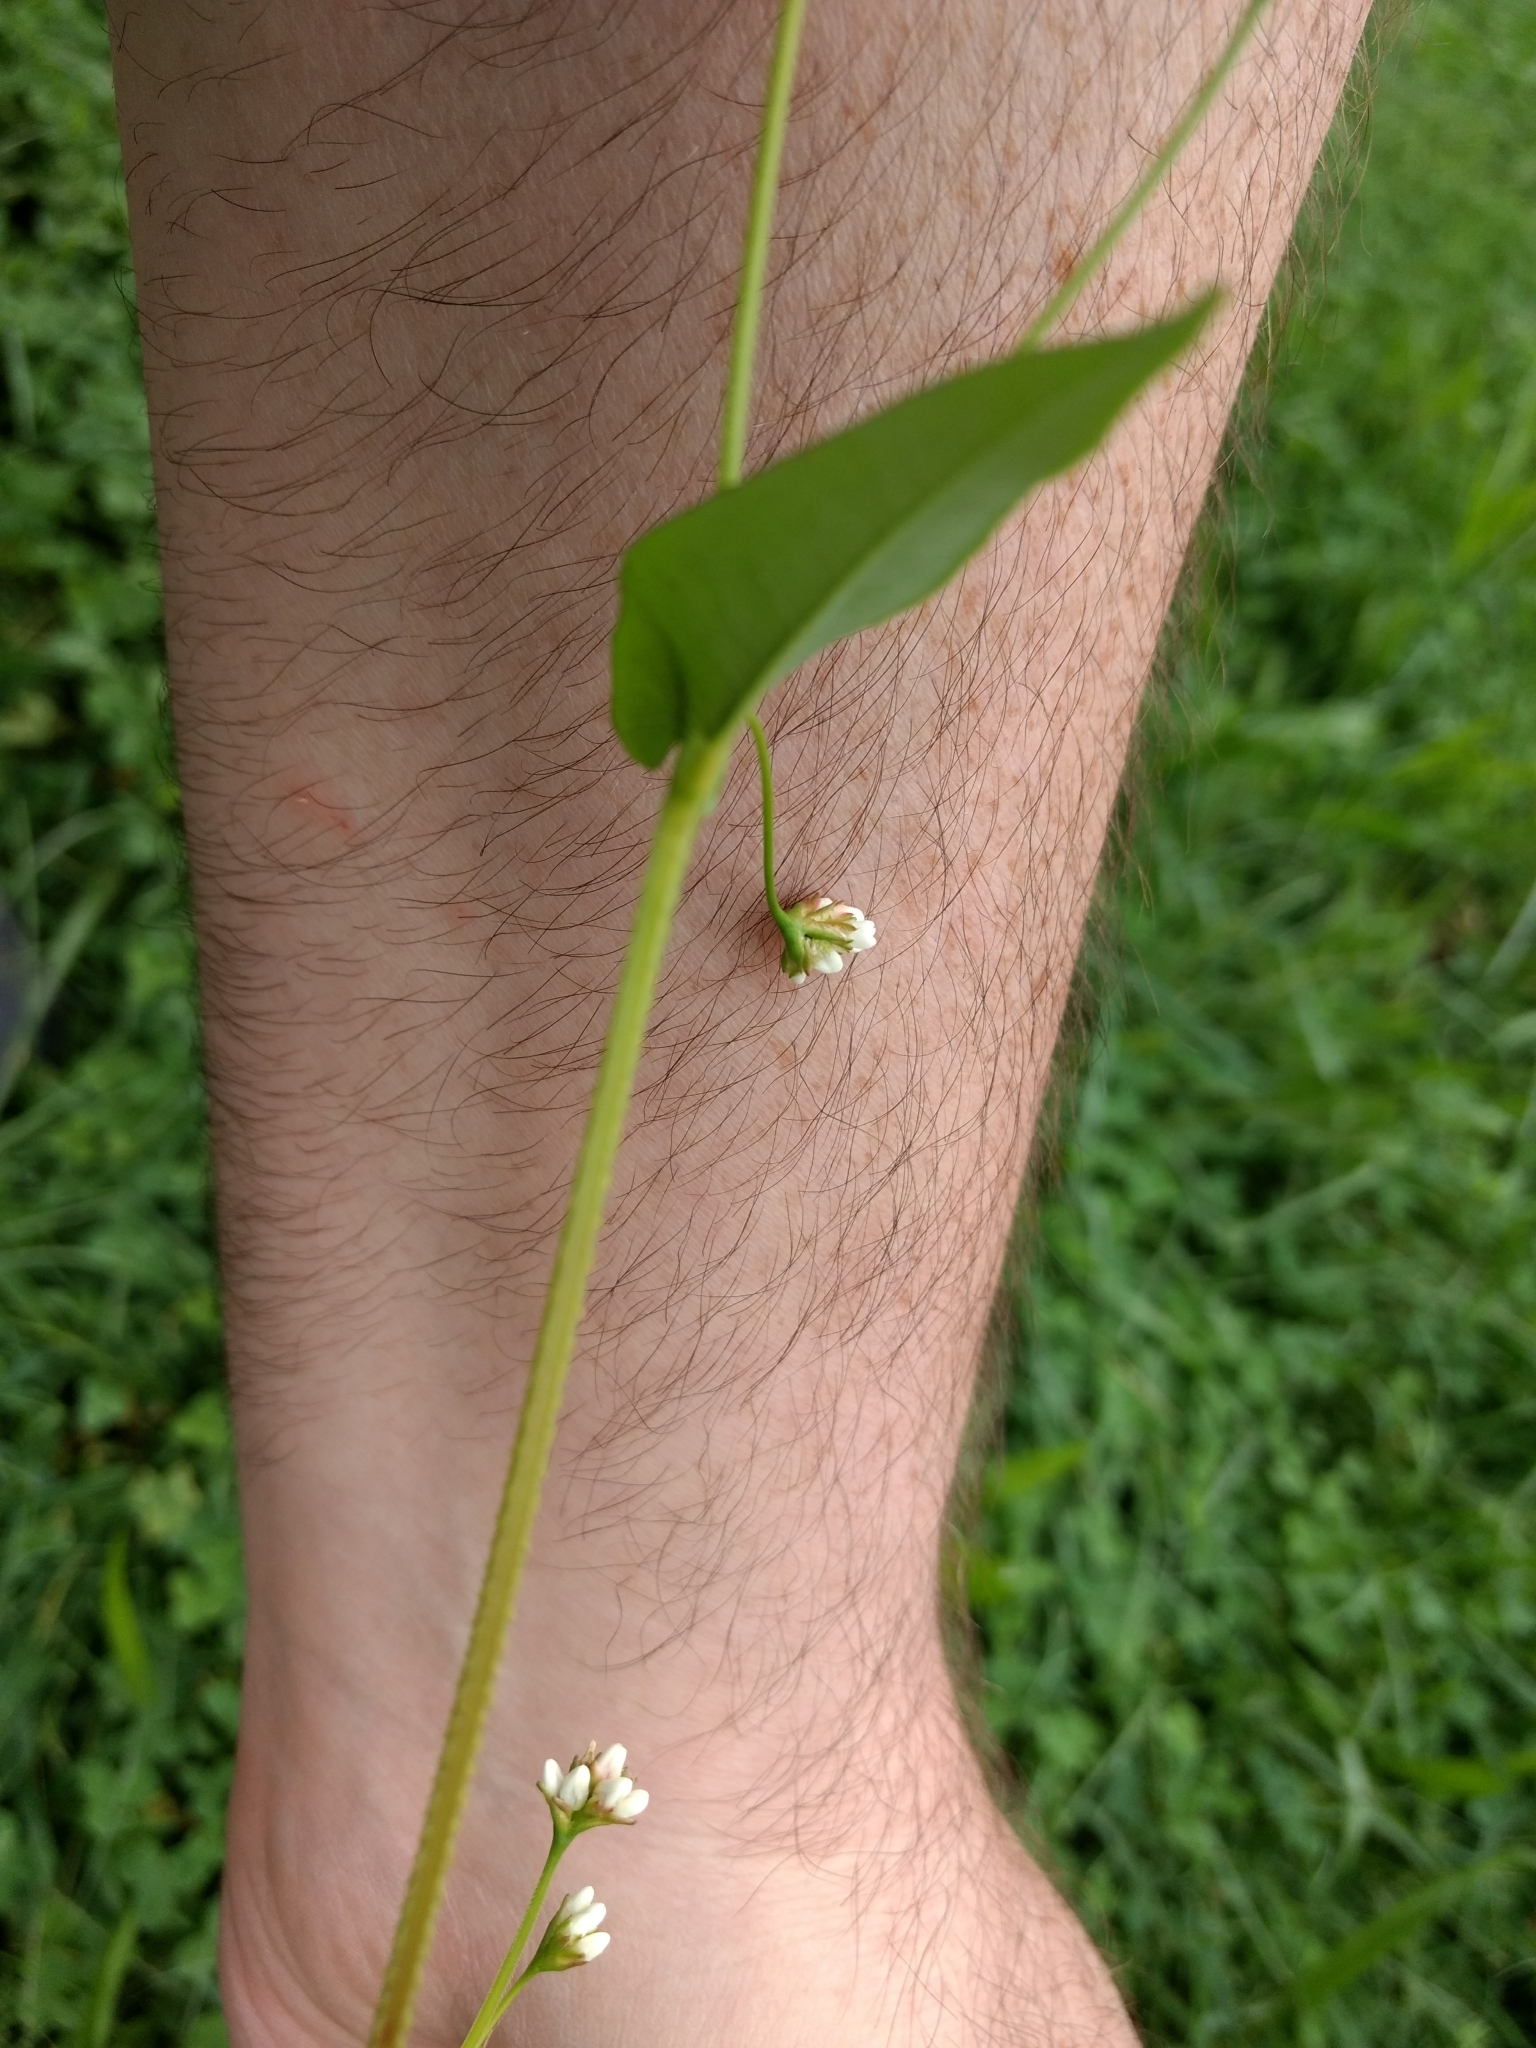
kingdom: Plantae
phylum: Tracheophyta
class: Magnoliopsida
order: Caryophyllales
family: Polygonaceae
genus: Persicaria
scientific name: Persicaria sagittata
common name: American tearthumb
